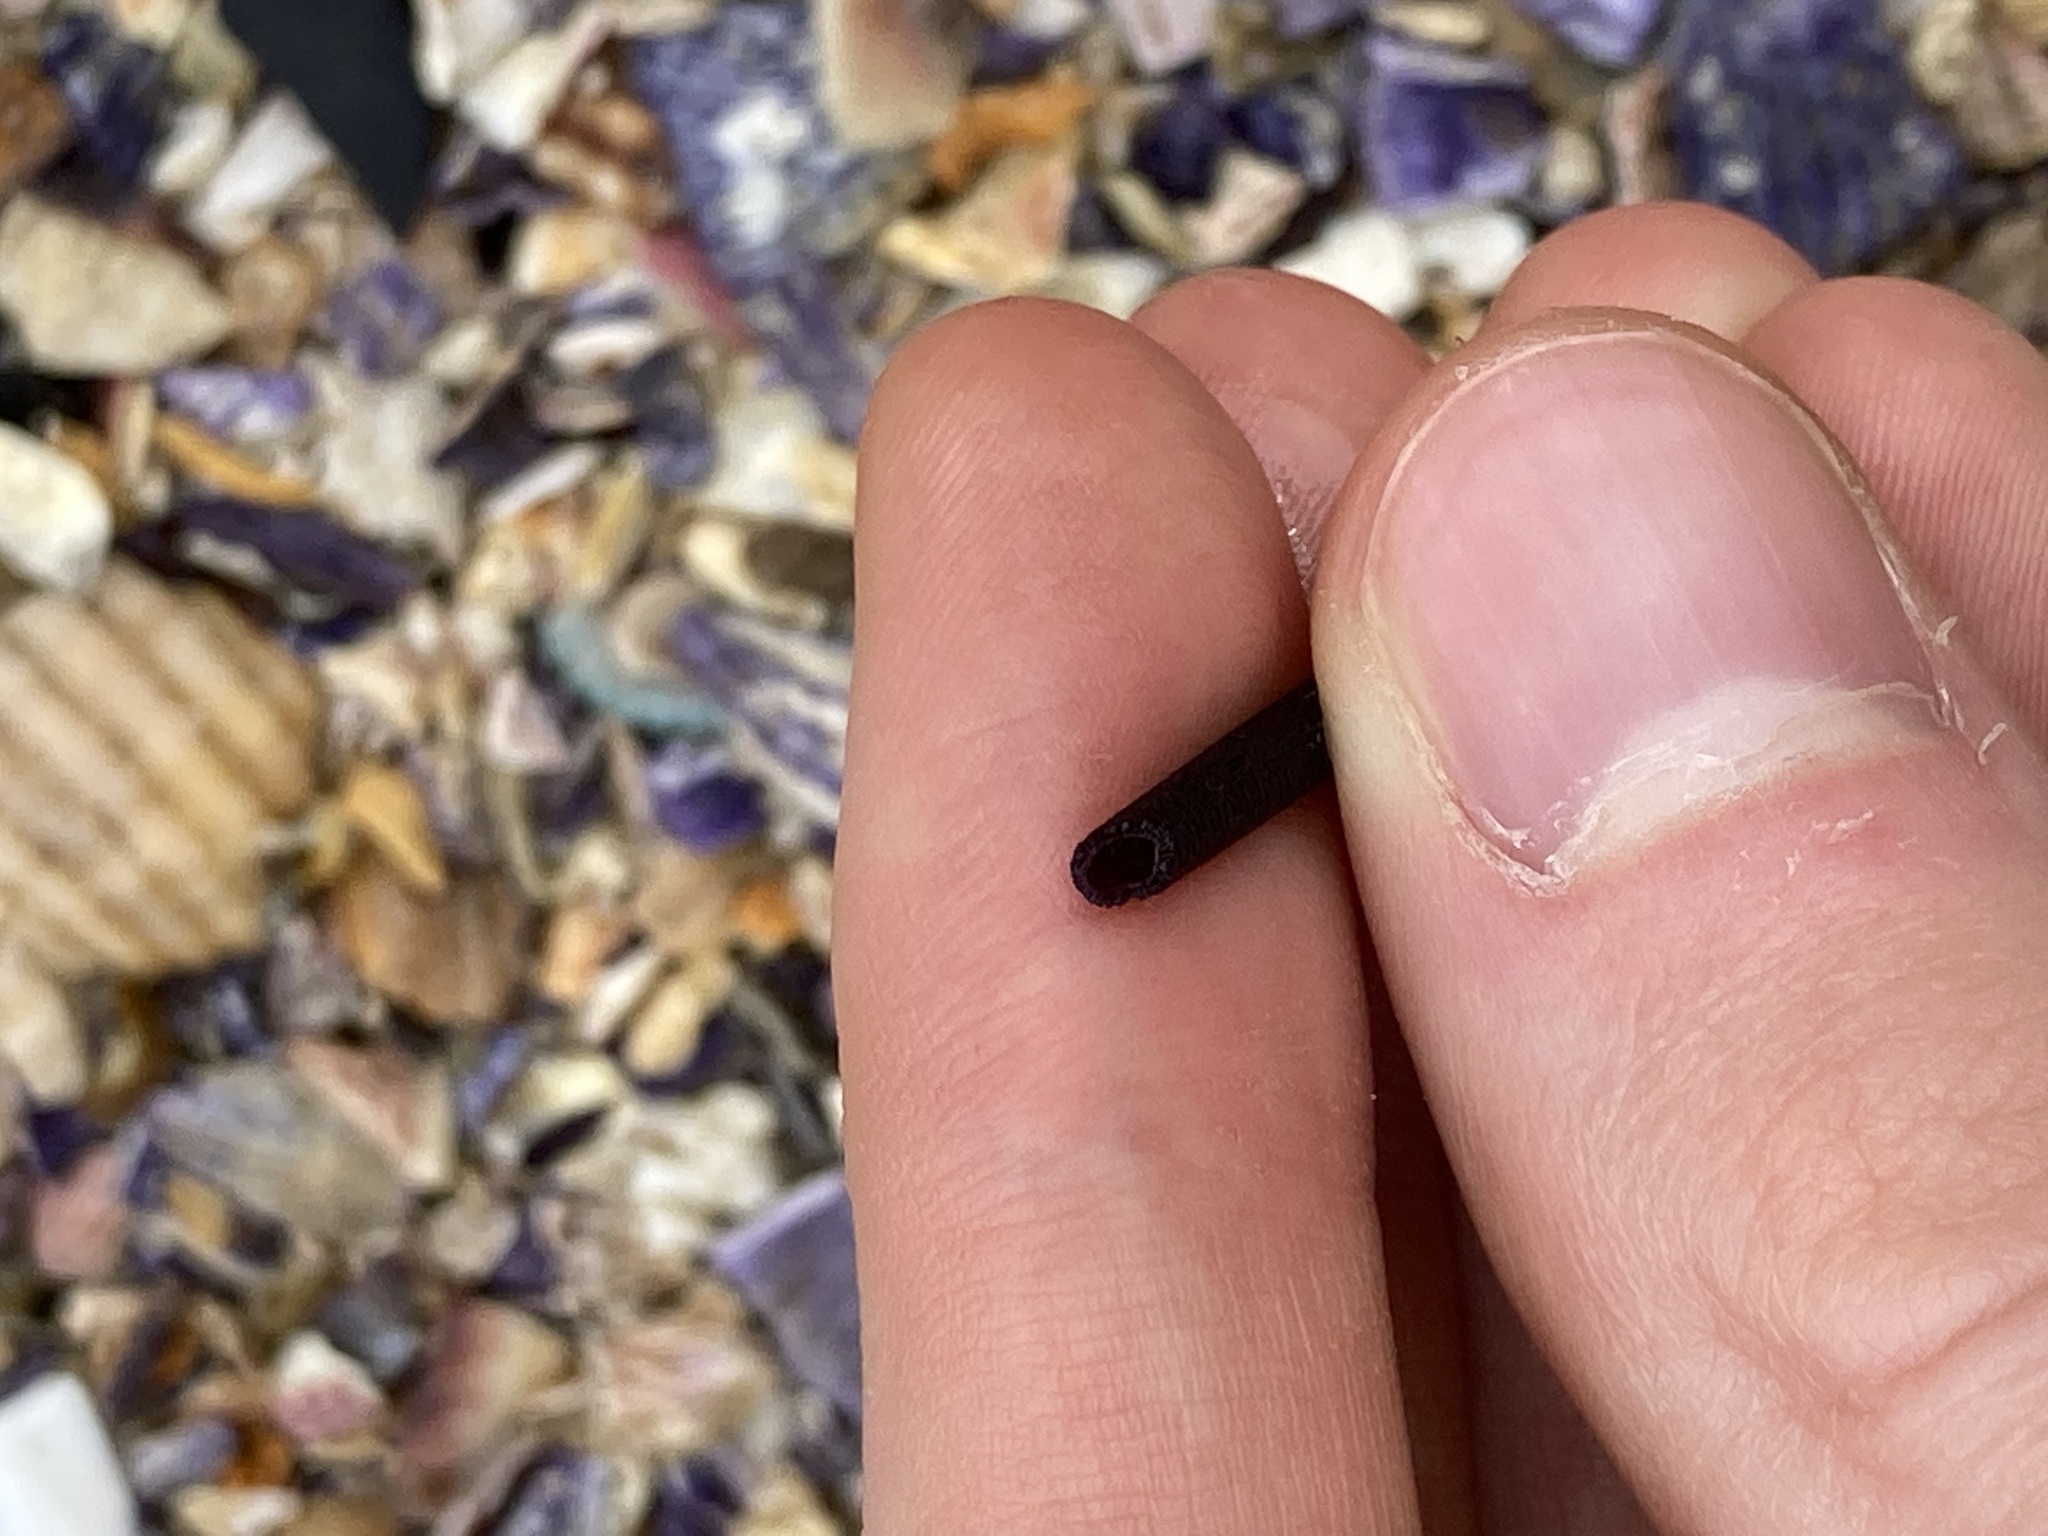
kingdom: Animalia
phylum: Echinodermata
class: Echinoidea
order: Diadematoida
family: Diadematidae
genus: Centrostephanus
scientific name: Centrostephanus rodgersii
